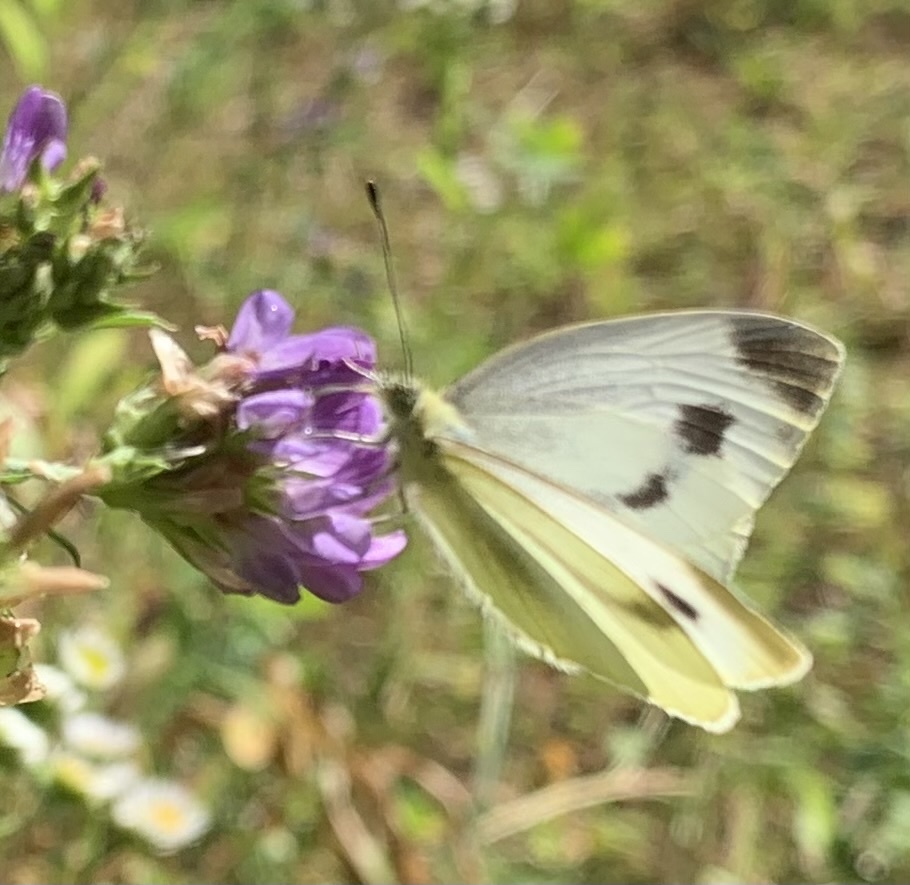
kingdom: Animalia
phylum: Arthropoda
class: Insecta
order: Lepidoptera
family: Pieridae
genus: Pieris
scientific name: Pieris mannii
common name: Southern small white
